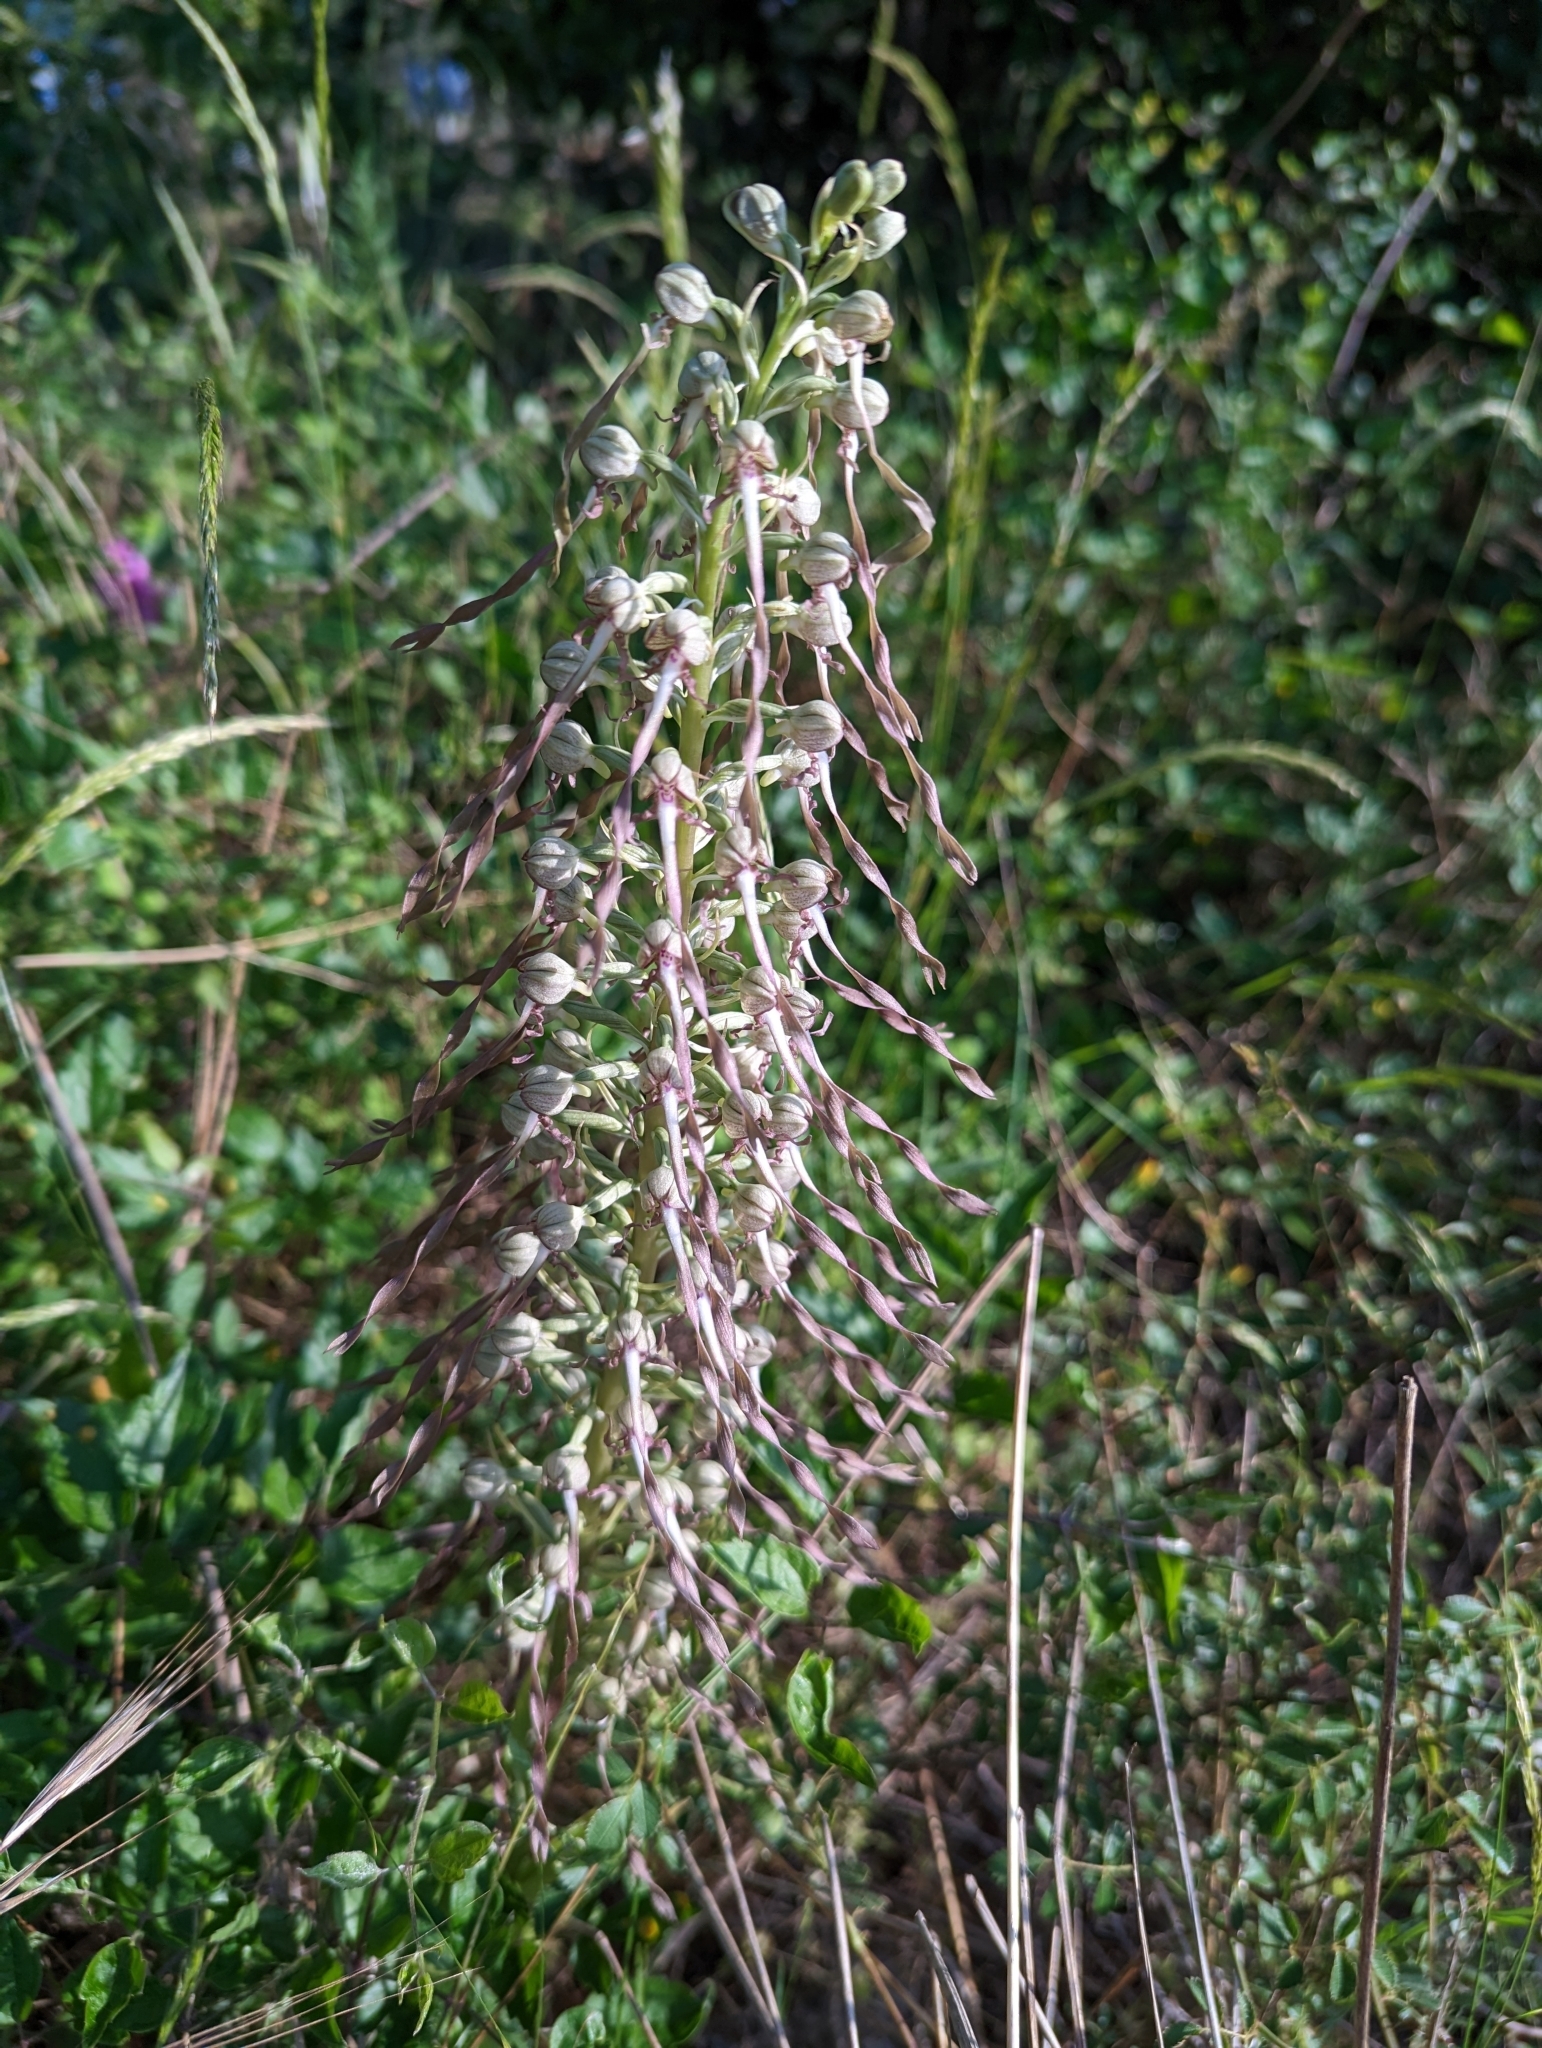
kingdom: Plantae
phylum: Tracheophyta
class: Liliopsida
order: Asparagales
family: Orchidaceae
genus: Himantoglossum
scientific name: Himantoglossum hircinum
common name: Lizard orchid
